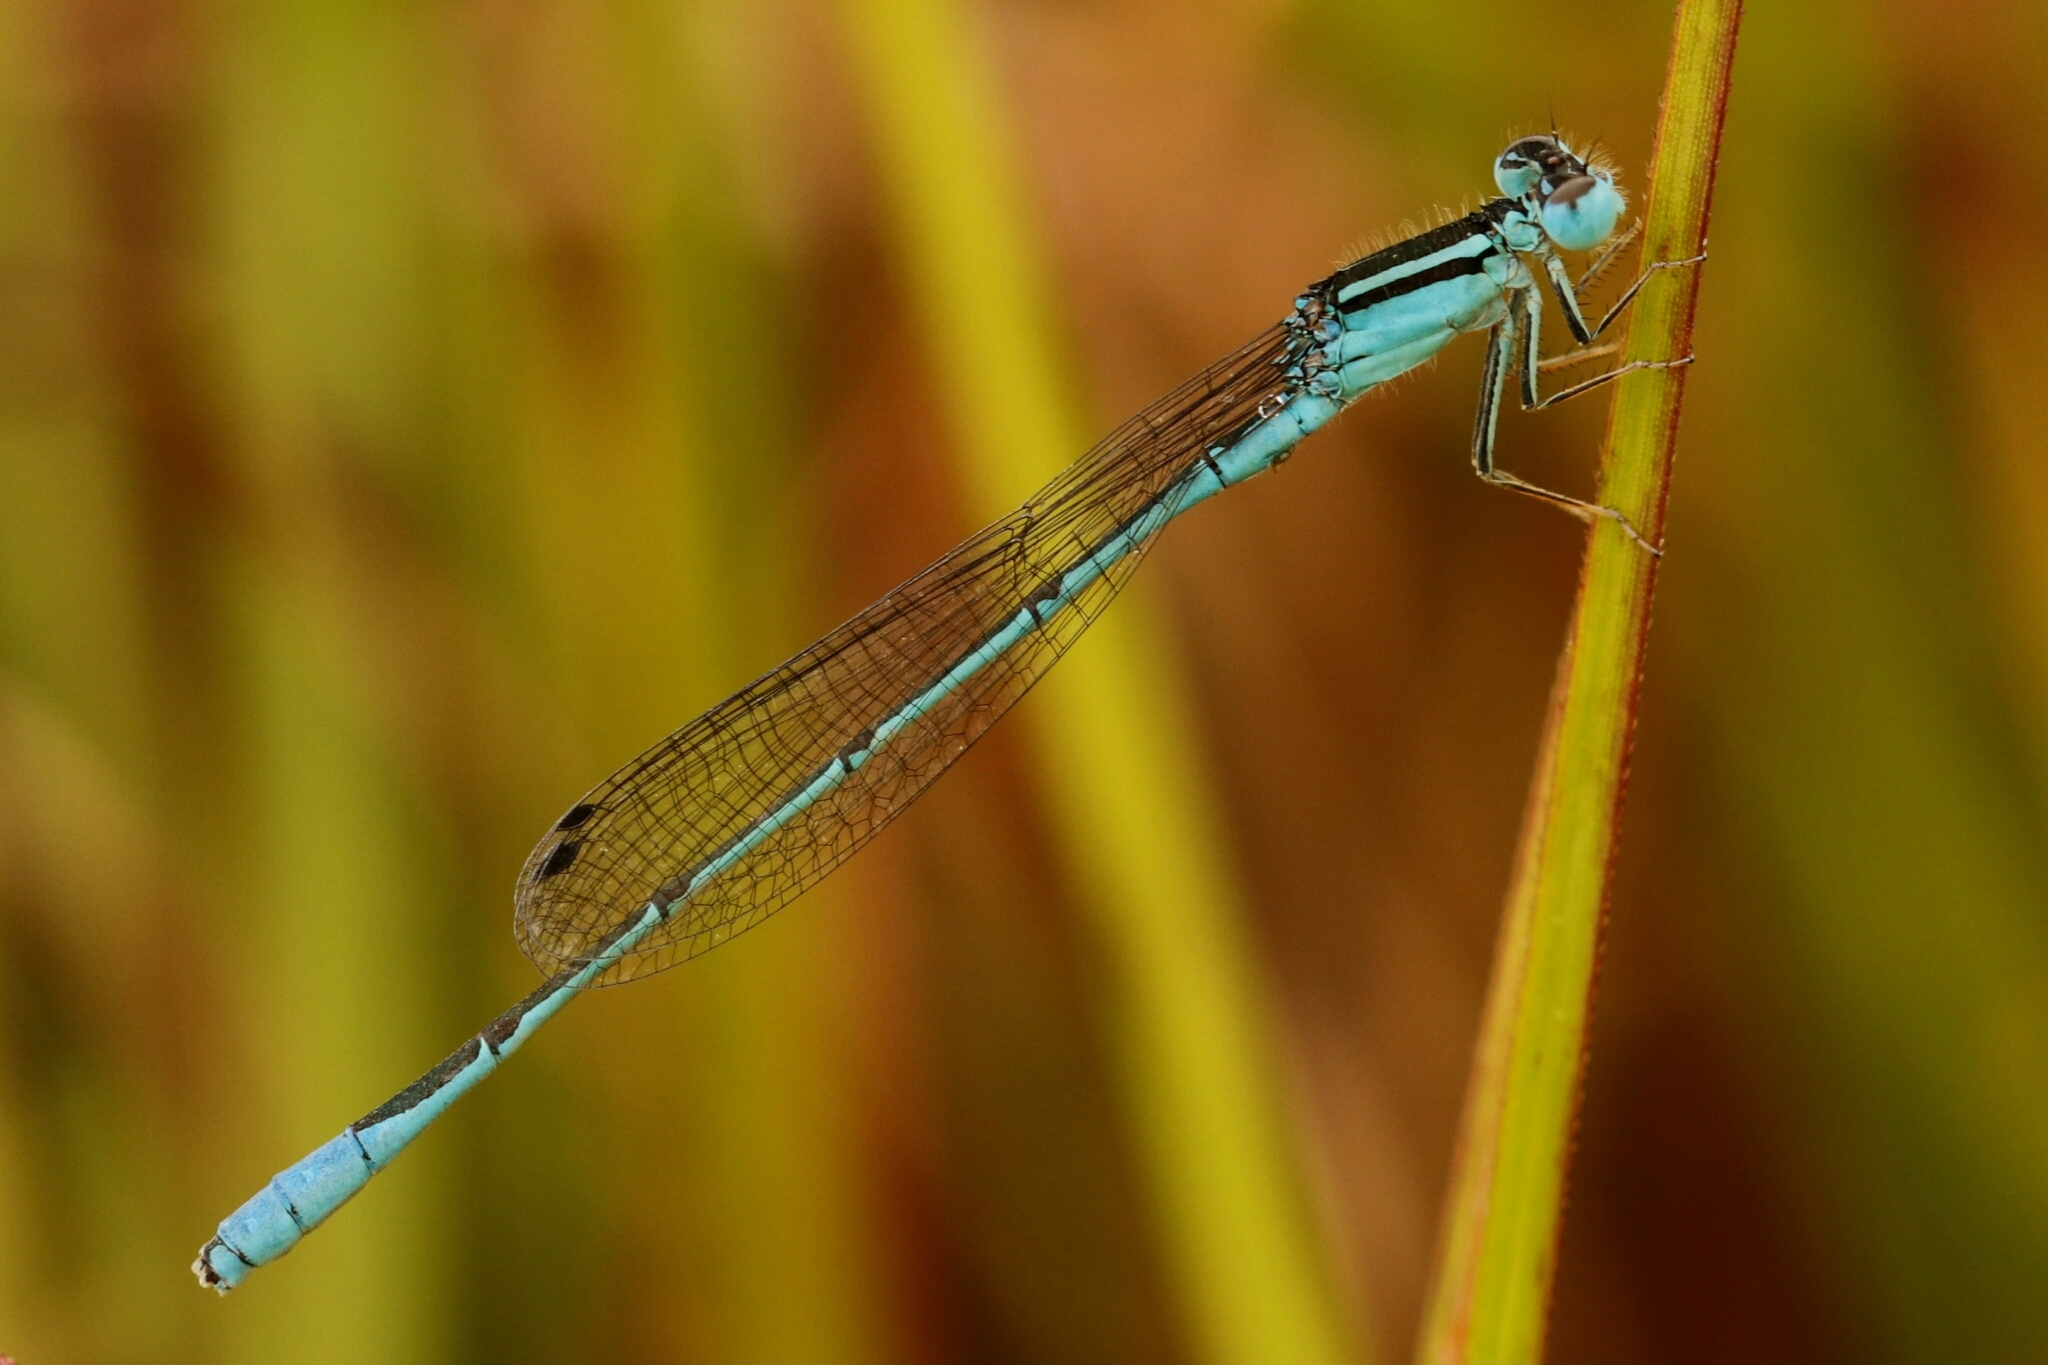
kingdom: Animalia
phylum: Arthropoda
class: Insecta
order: Odonata
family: Coenagrionidae
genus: Africallagma
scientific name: Africallagma glaucum
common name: Swamp bluet
